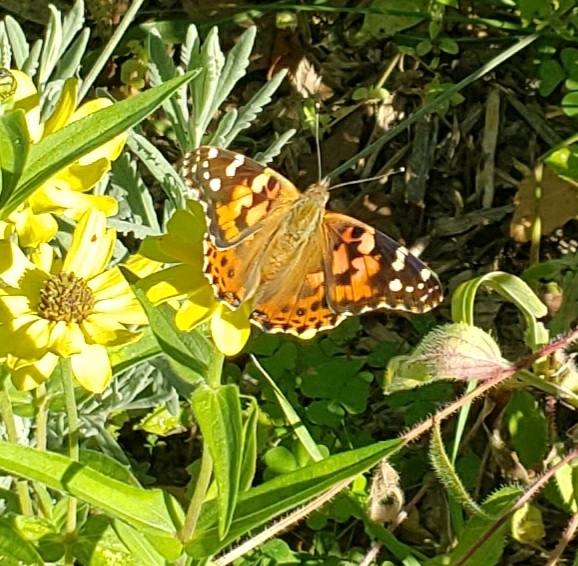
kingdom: Animalia
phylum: Arthropoda
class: Insecta
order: Lepidoptera
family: Nymphalidae
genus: Vanessa
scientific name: Vanessa cardui
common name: Painted lady
